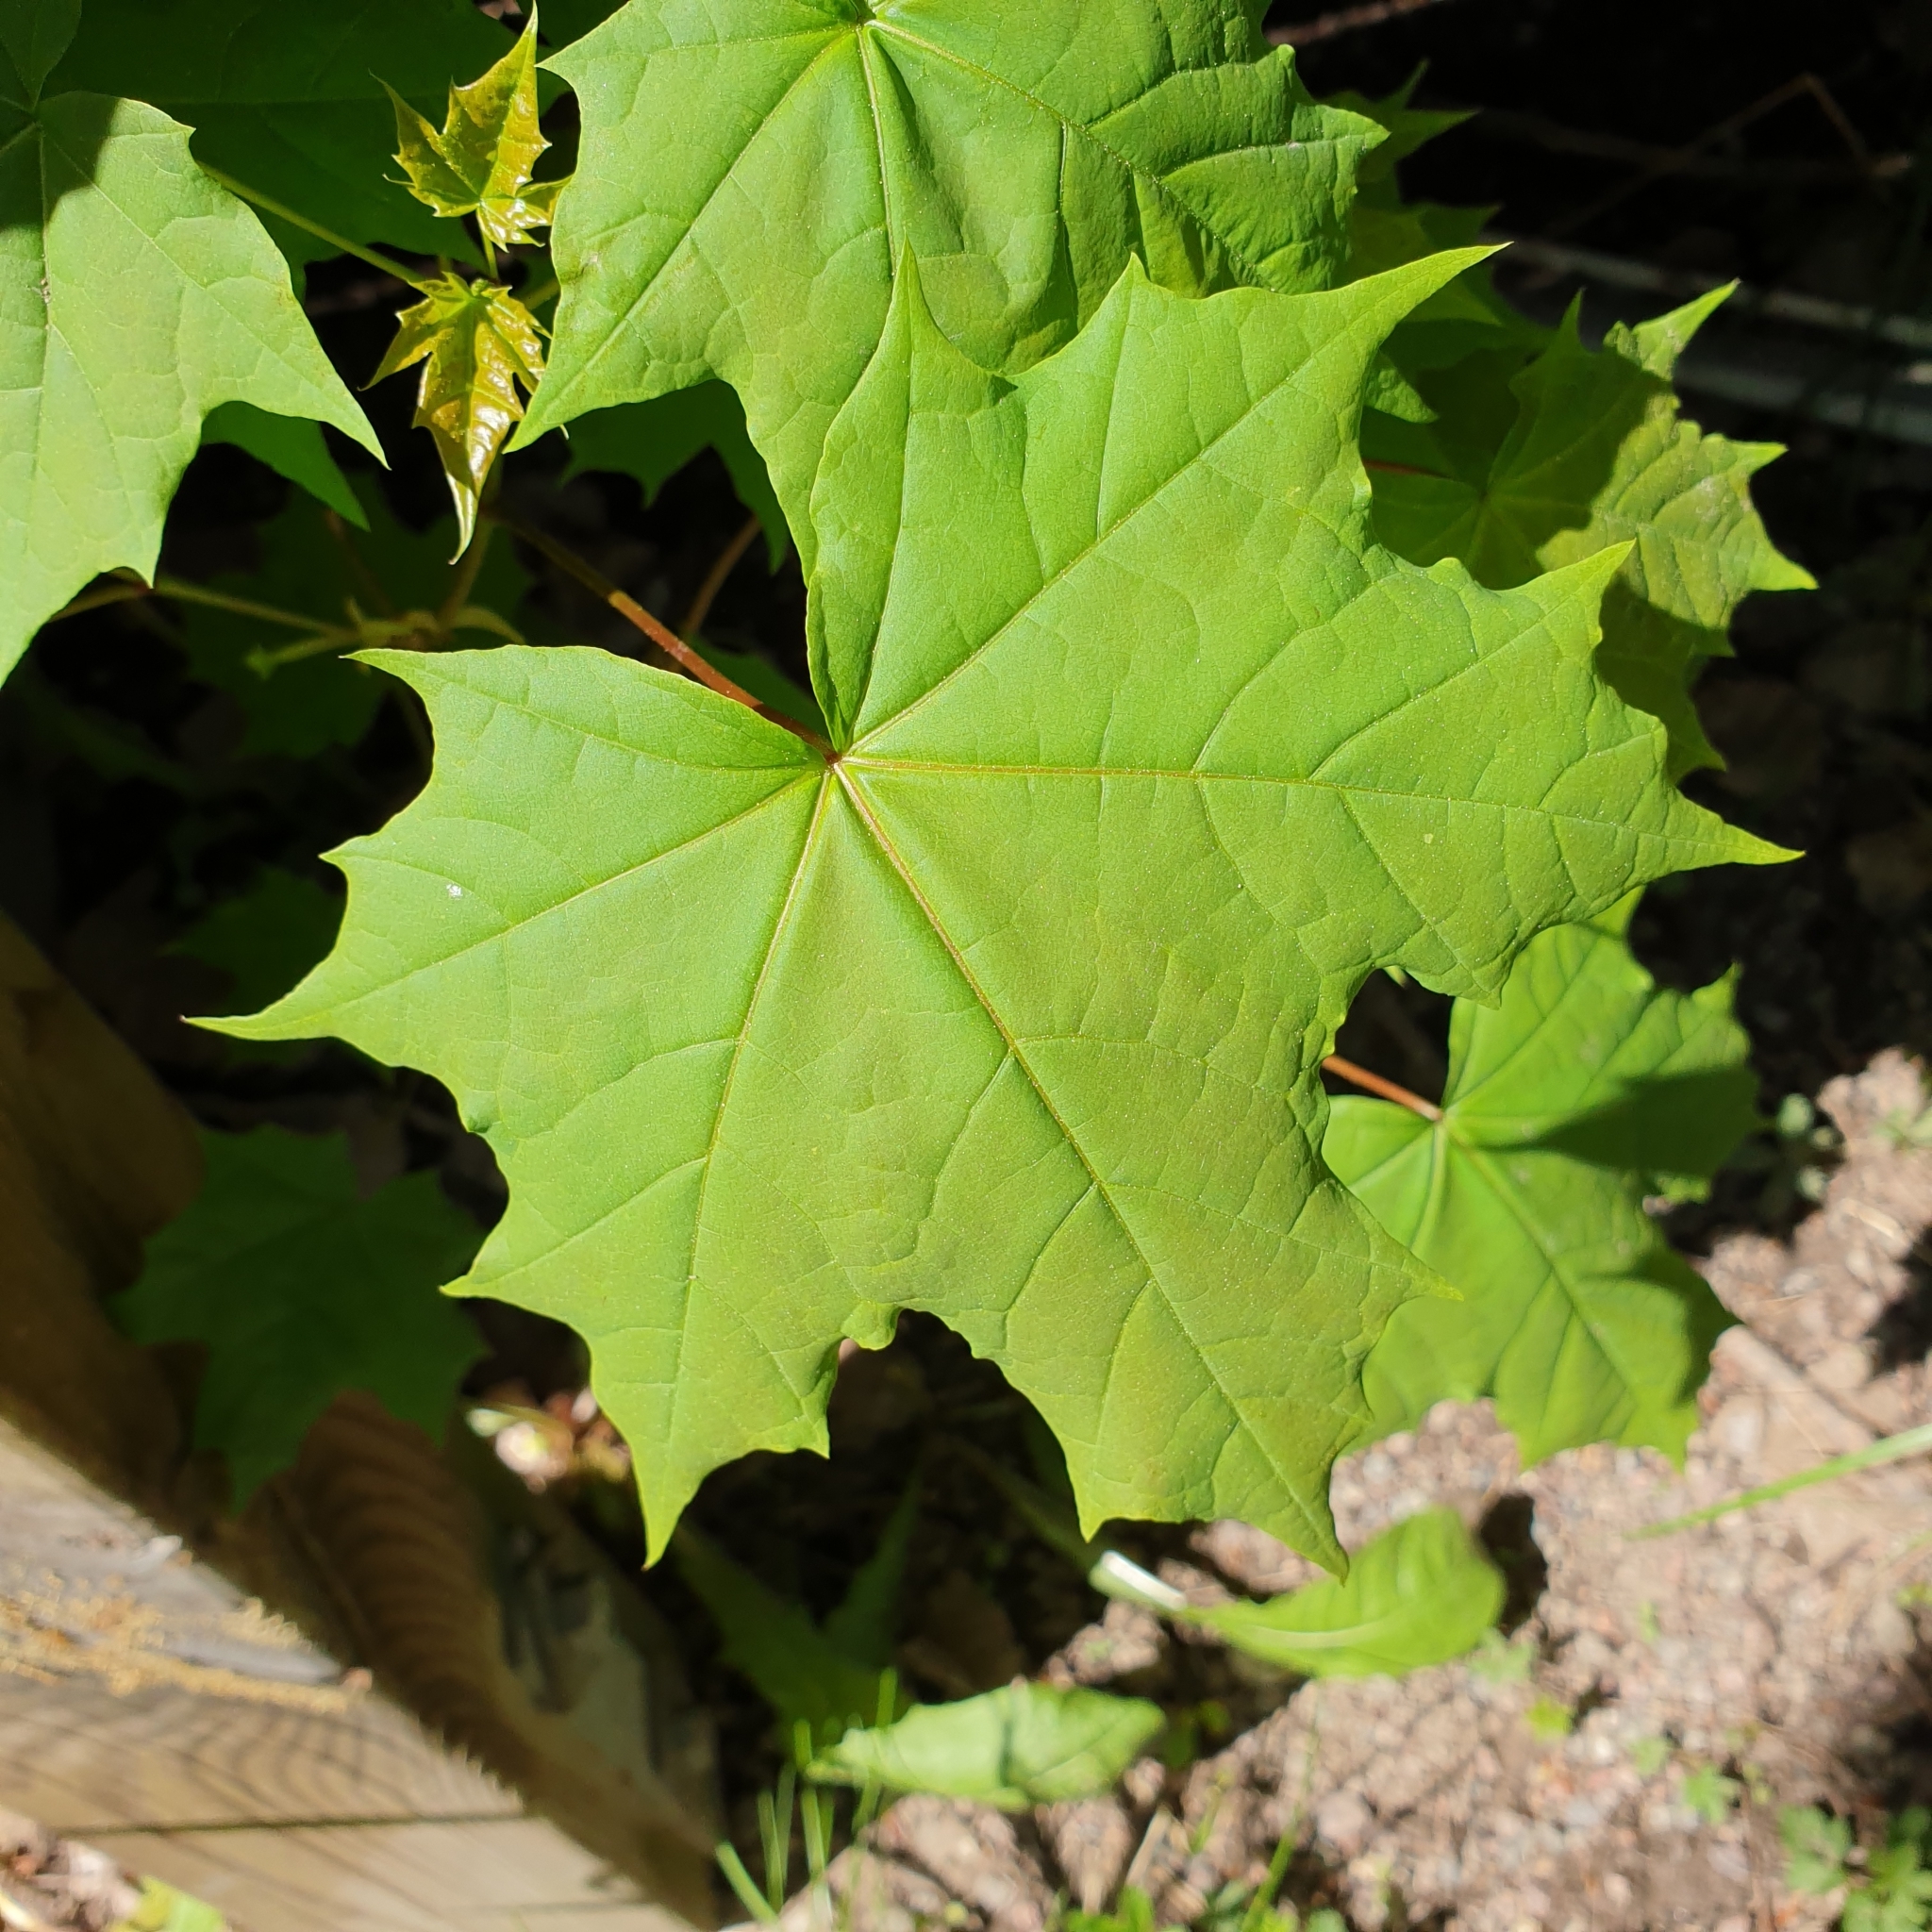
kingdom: Plantae
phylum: Tracheophyta
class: Magnoliopsida
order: Sapindales
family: Sapindaceae
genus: Acer
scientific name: Acer platanoides
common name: Norway maple
